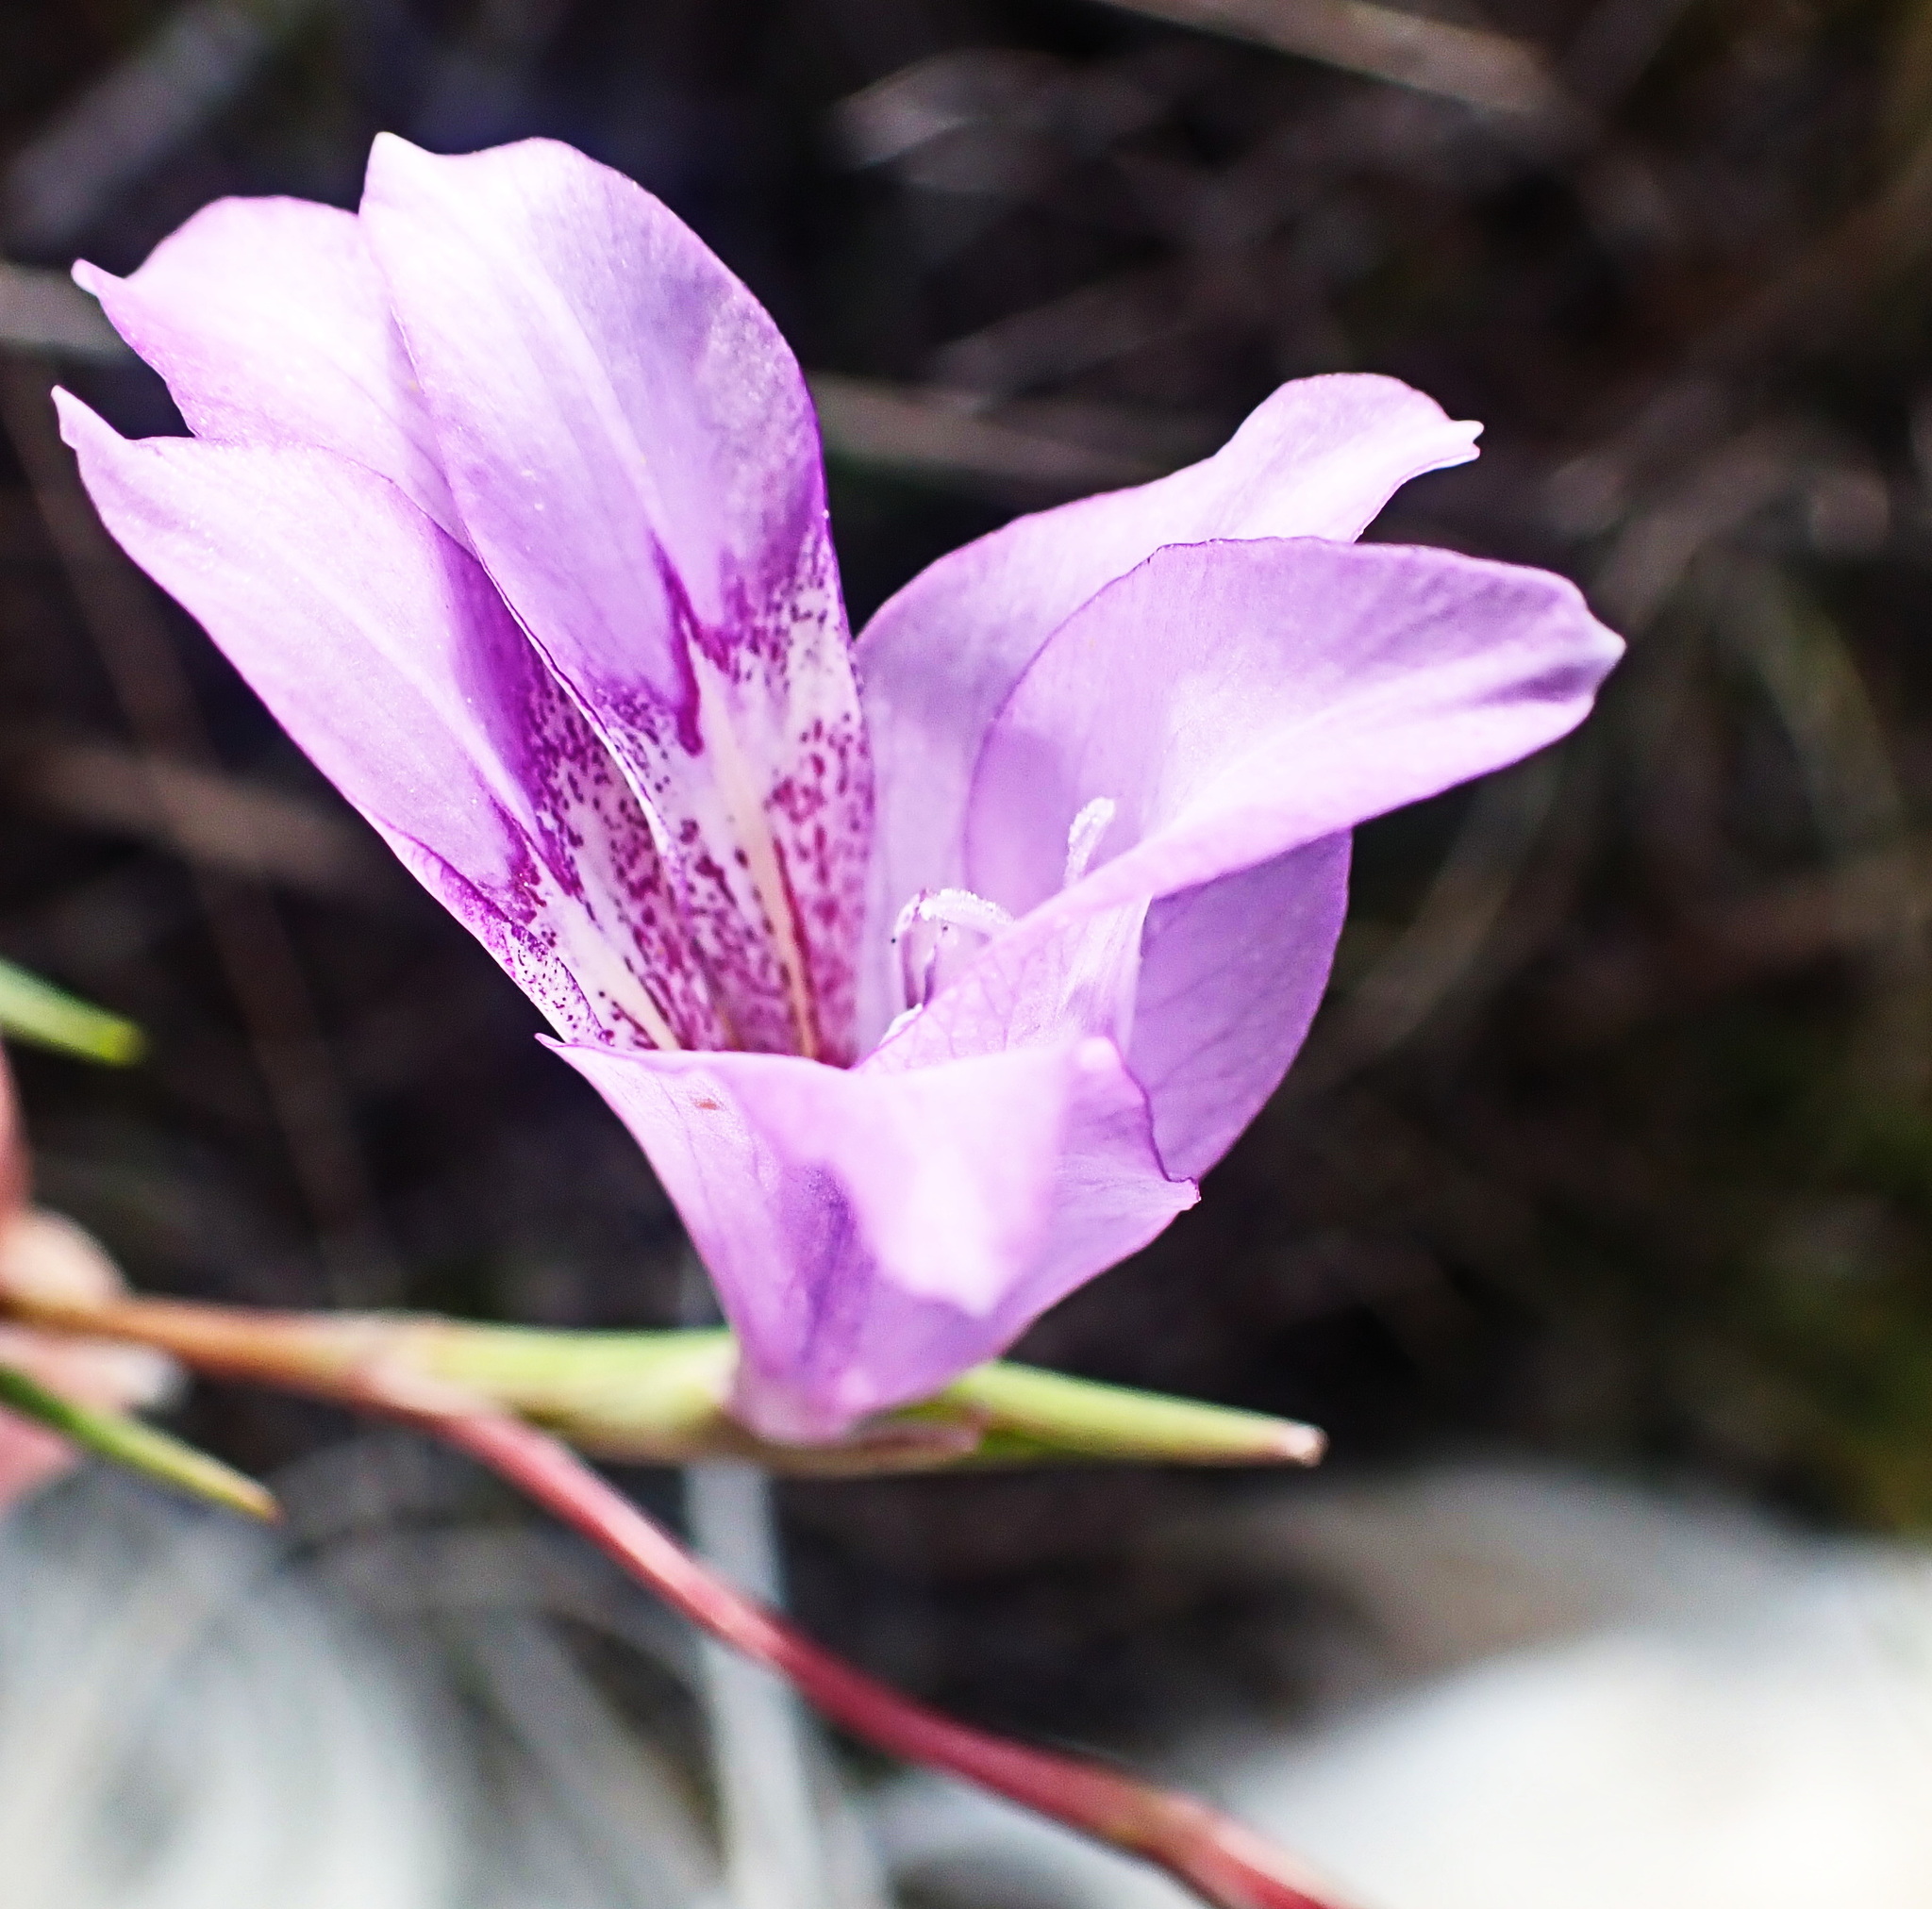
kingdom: Plantae
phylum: Tracheophyta
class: Liliopsida
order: Asparagales
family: Iridaceae
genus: Gladiolus
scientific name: Gladiolus carinatus
